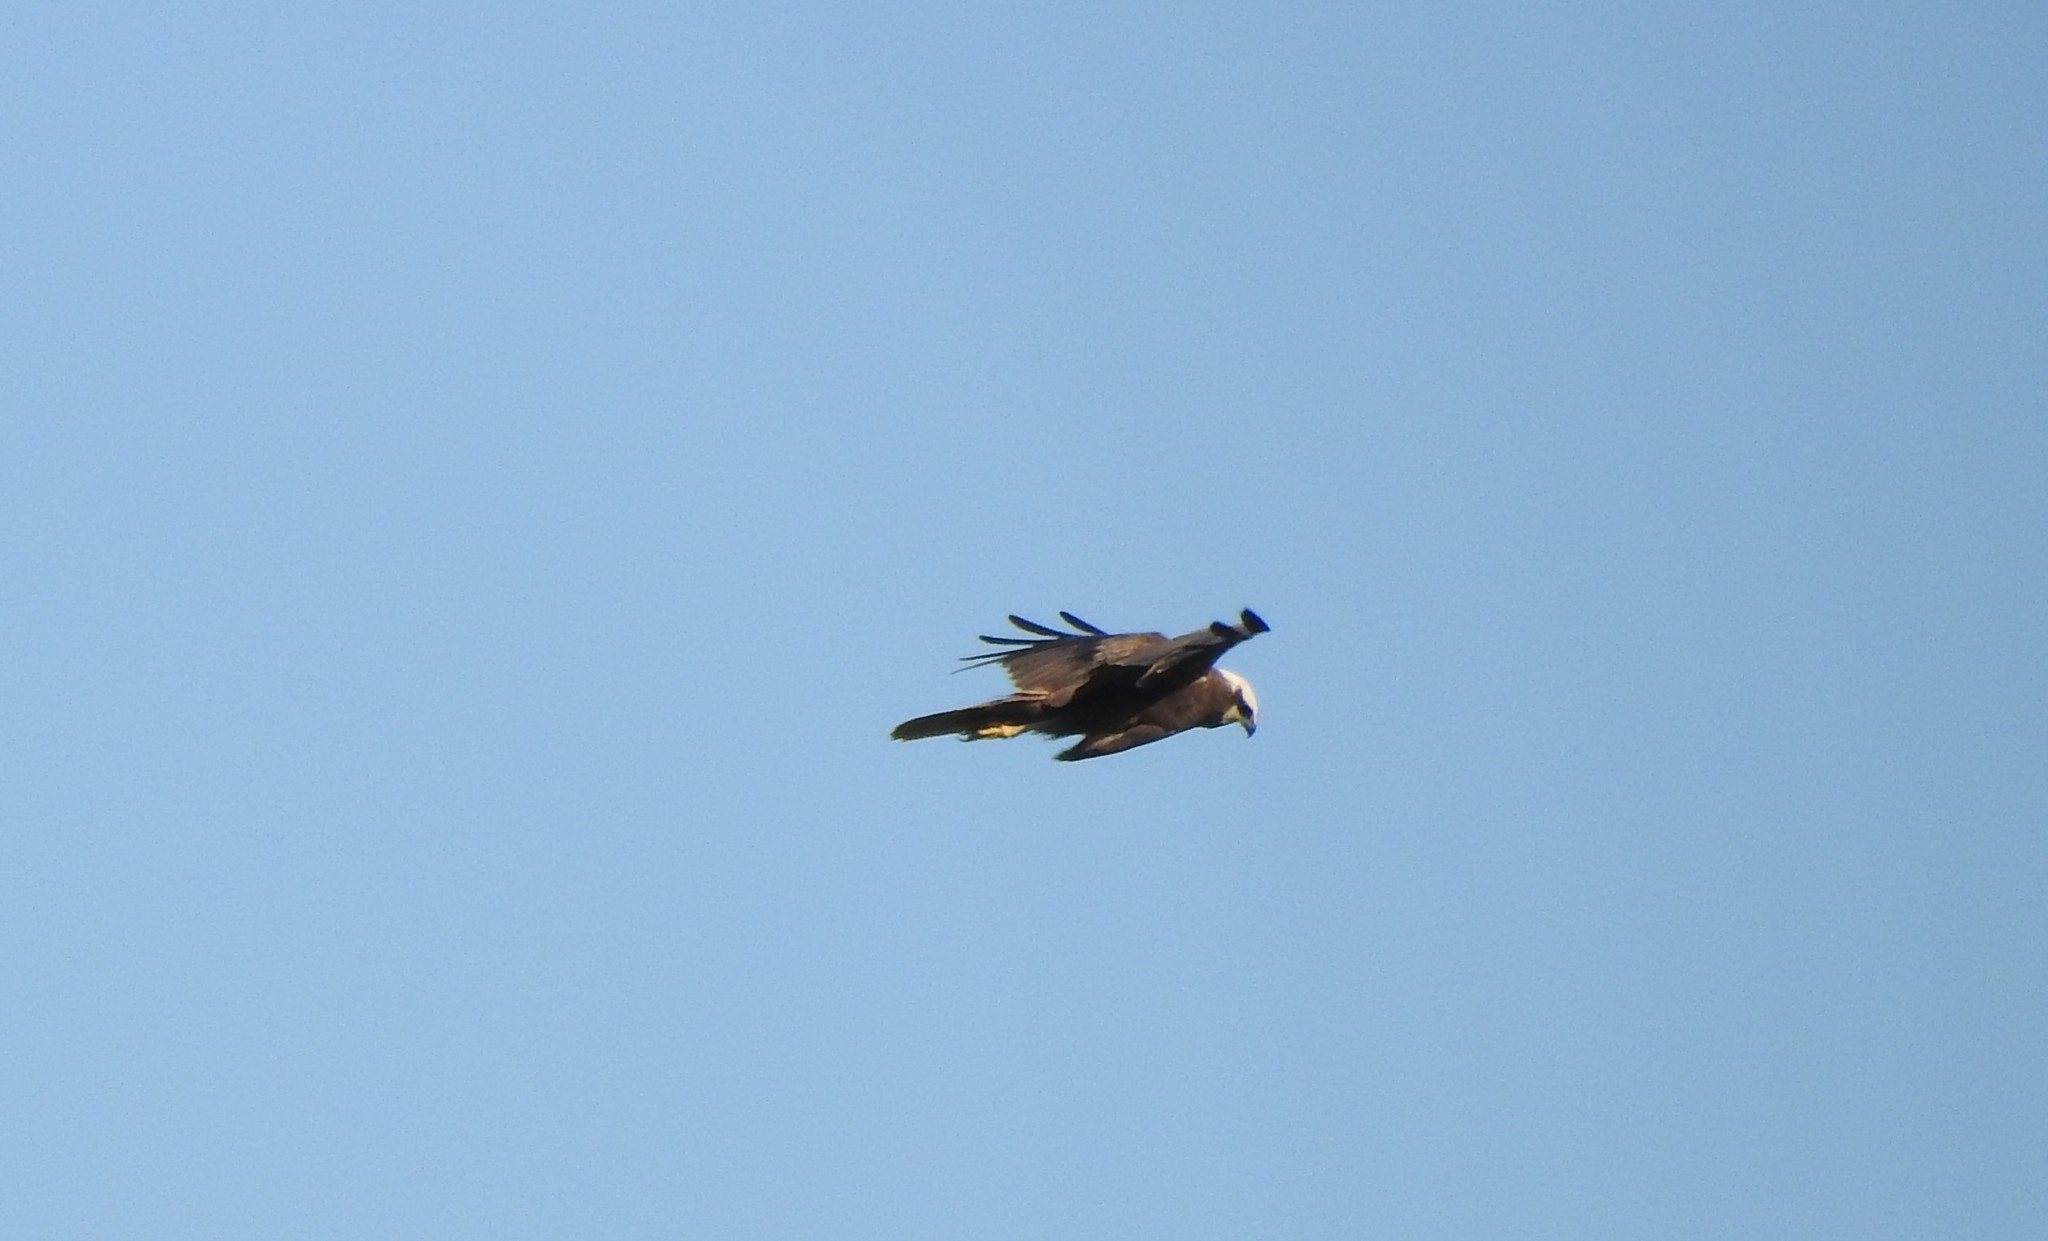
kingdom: Animalia
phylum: Chordata
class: Aves
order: Accipitriformes
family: Accipitridae
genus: Circus
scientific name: Circus aeruginosus
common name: Western marsh harrier
